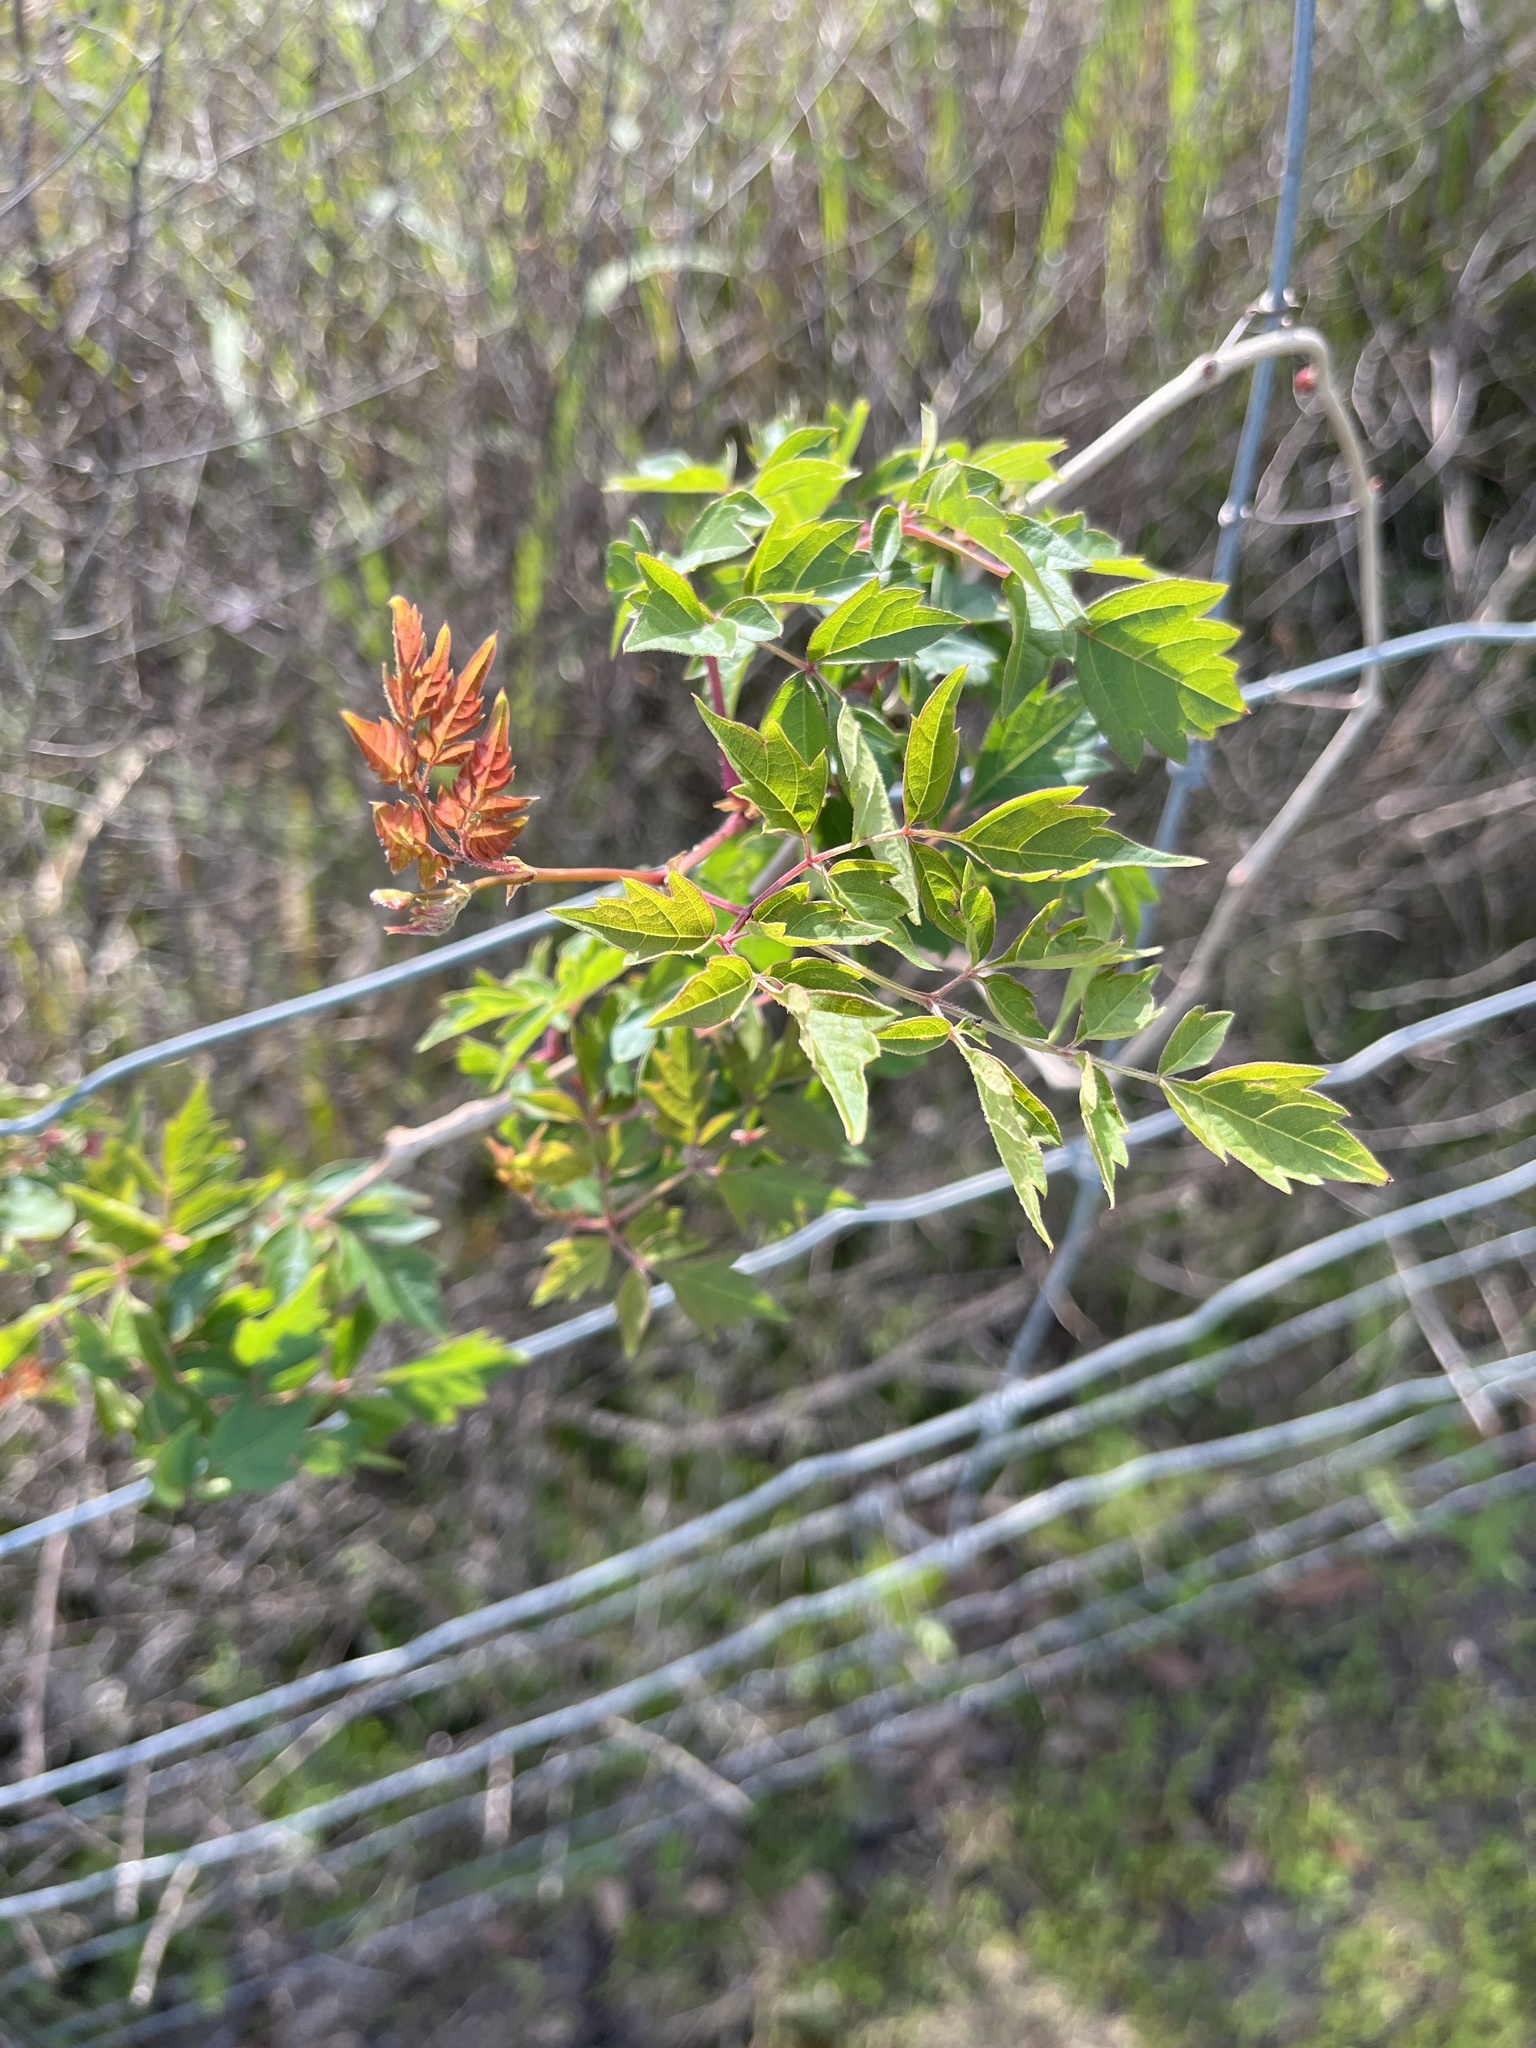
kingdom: Plantae
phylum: Tracheophyta
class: Magnoliopsida
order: Vitales
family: Vitaceae
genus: Nekemias
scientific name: Nekemias arborea
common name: Peppervine
